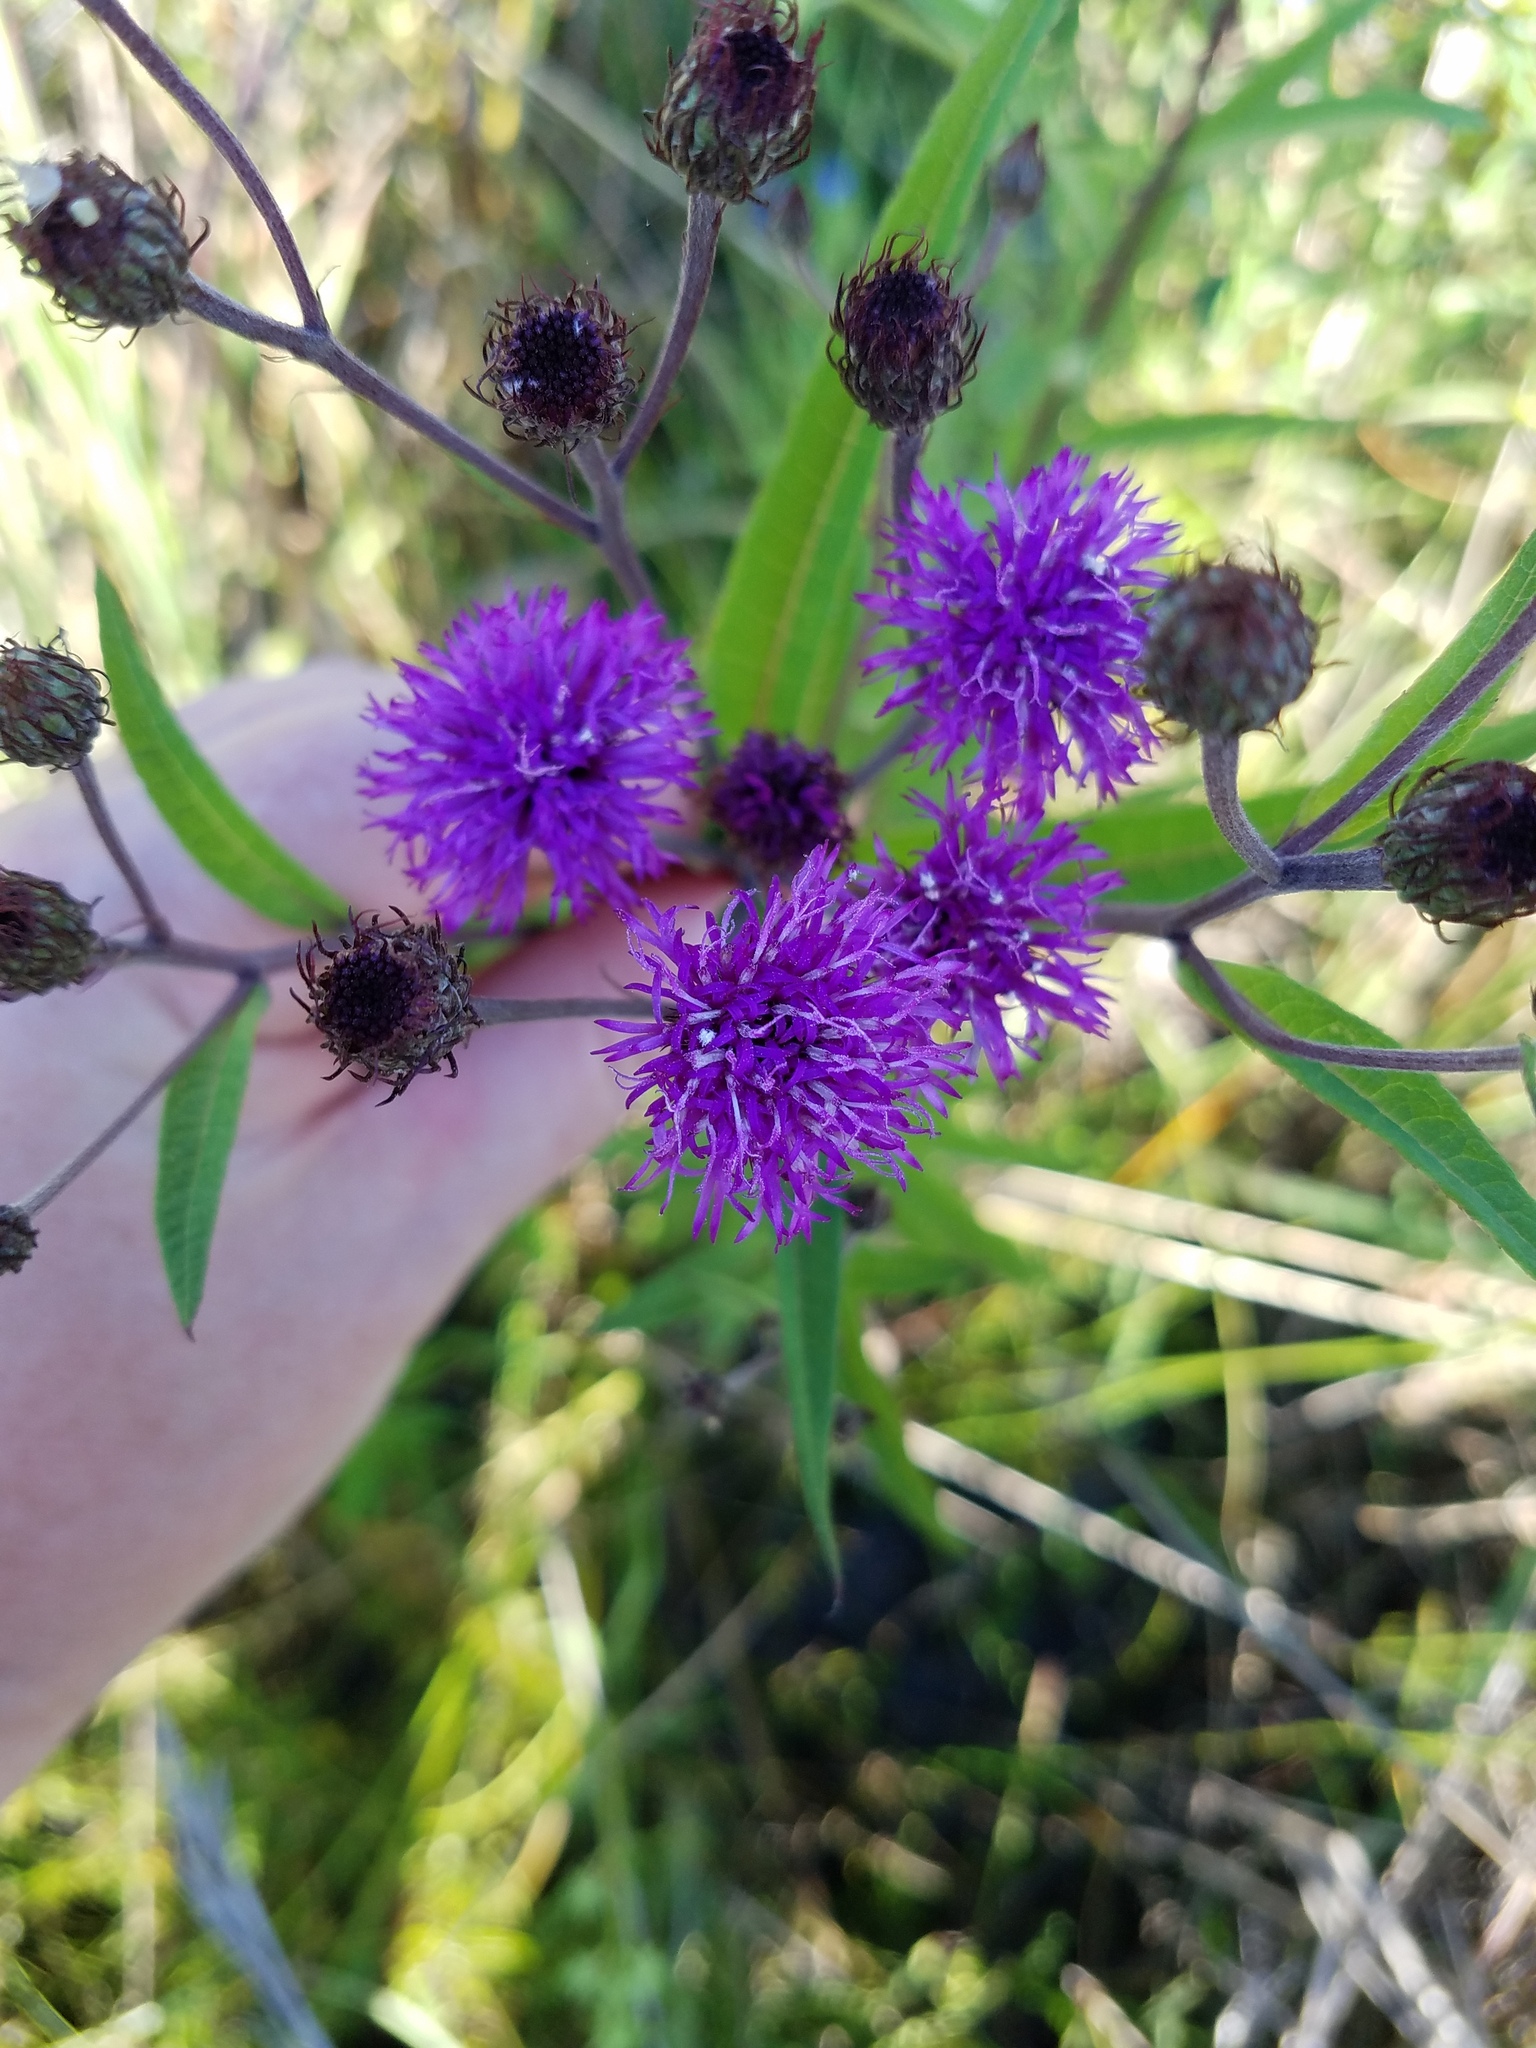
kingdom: Plantae
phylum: Tracheophyta
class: Magnoliopsida
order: Asterales
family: Asteraceae
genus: Vernonia
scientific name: Vernonia noveboracensis
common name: New york ironweed
